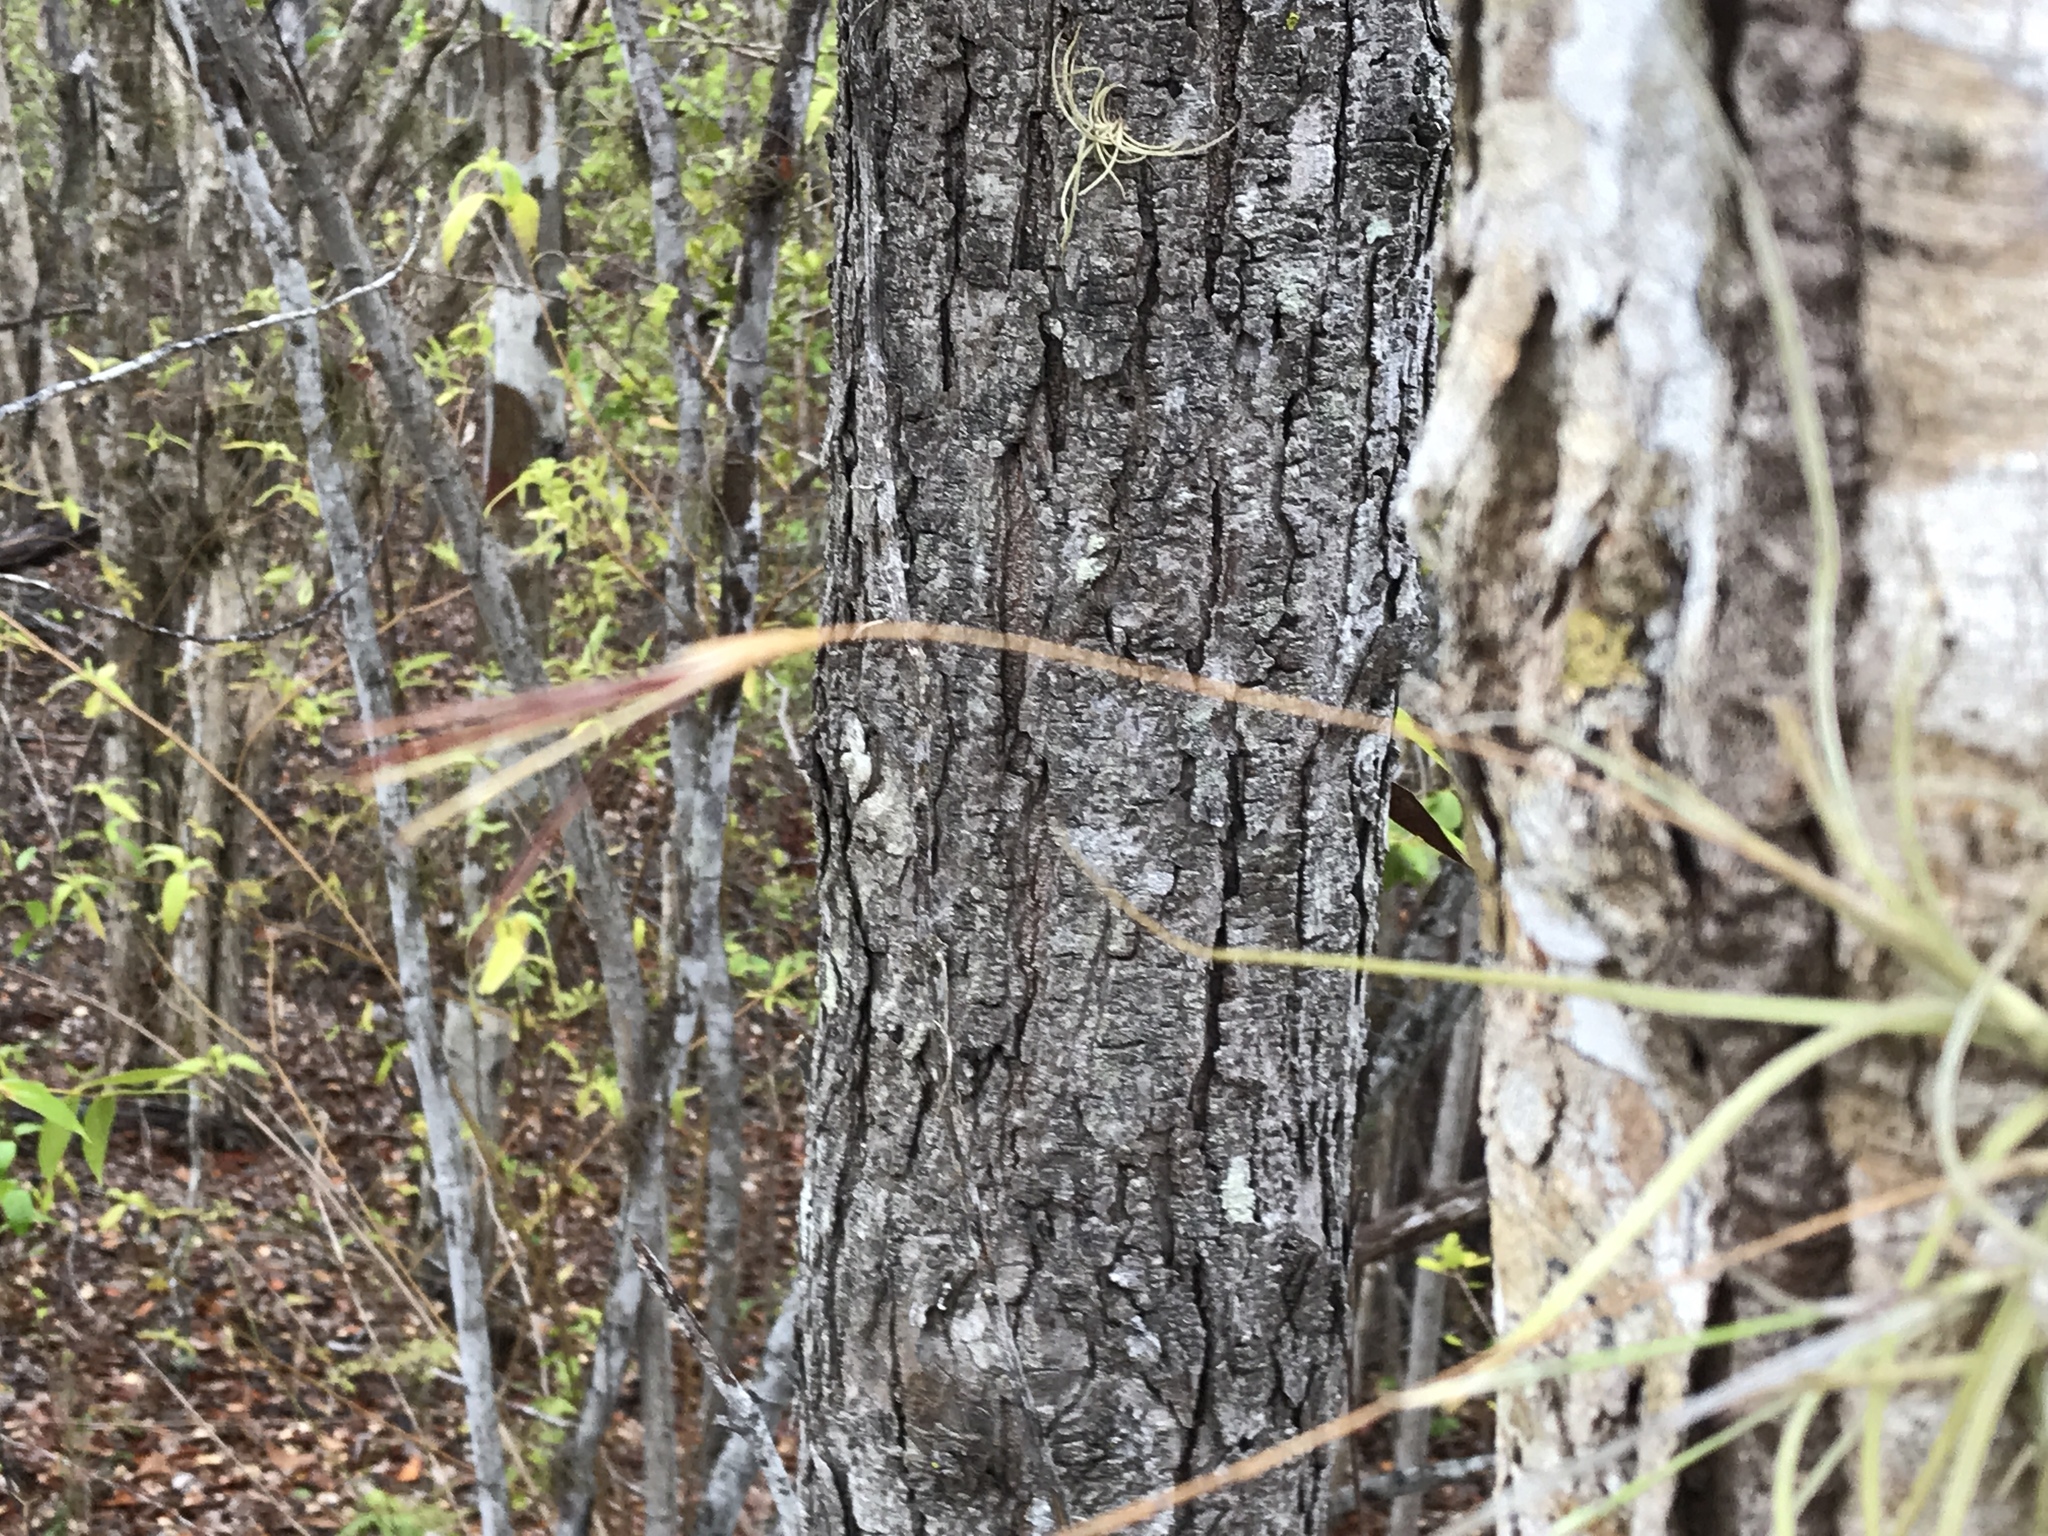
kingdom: Plantae
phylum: Tracheophyta
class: Liliopsida
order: Poales
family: Bromeliaceae
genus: Tillandsia
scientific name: Tillandsia recurvata
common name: Small ballmoss
